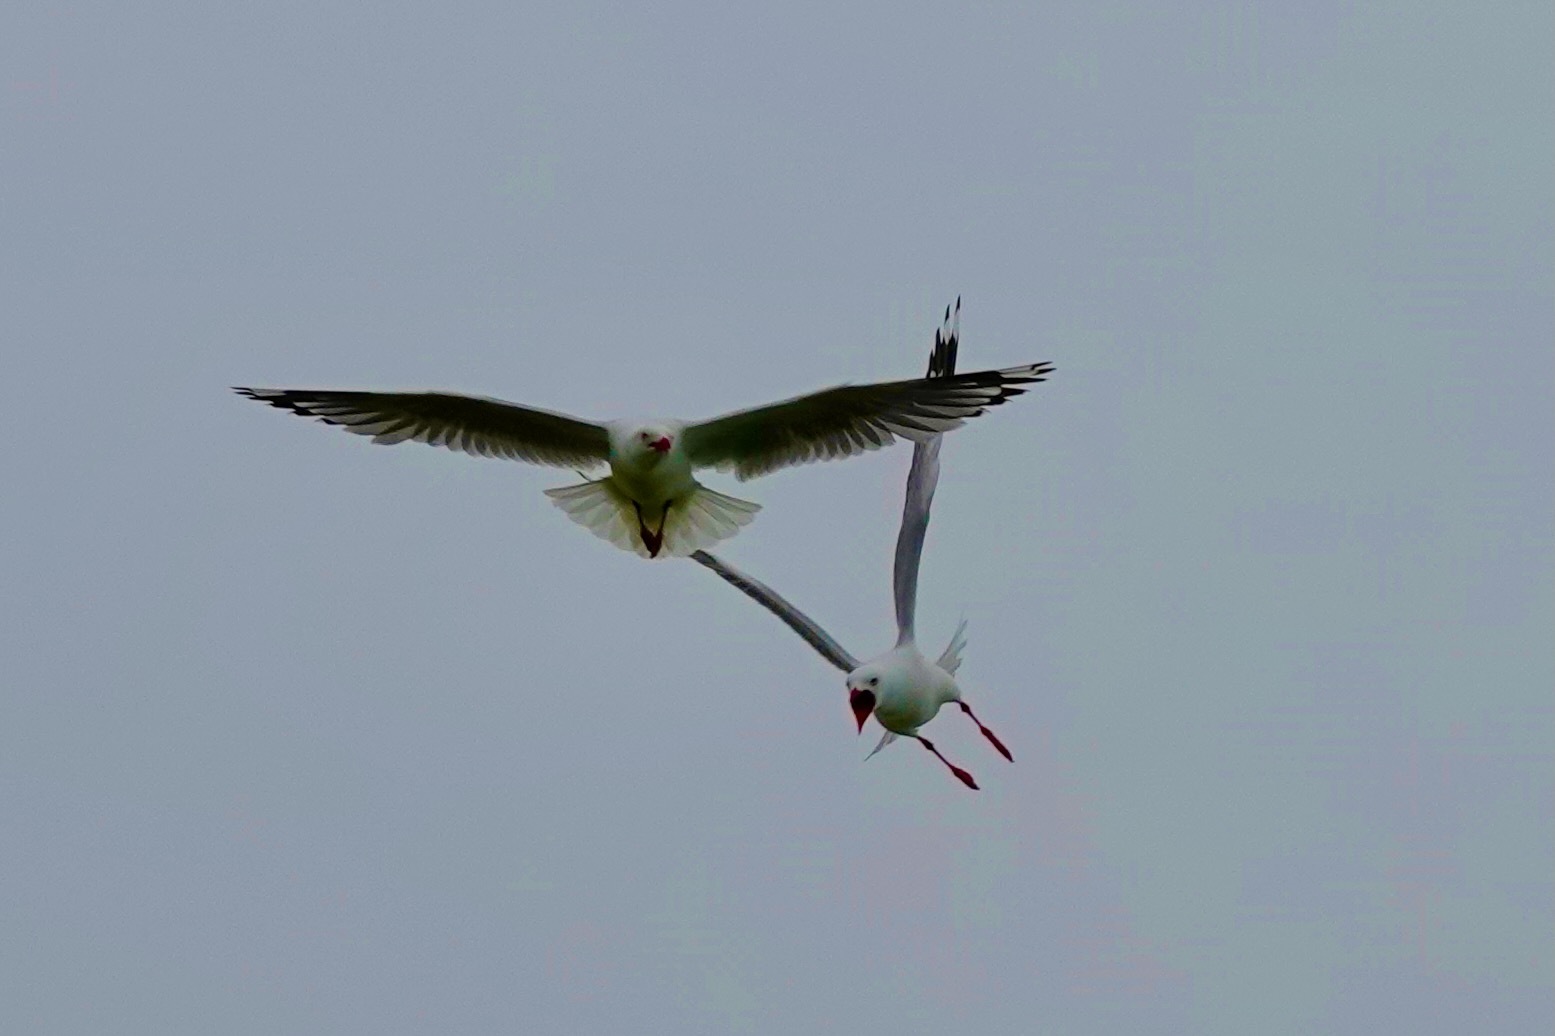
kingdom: Animalia
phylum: Chordata
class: Aves
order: Charadriiformes
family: Laridae
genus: Chroicocephalus
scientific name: Chroicocephalus novaehollandiae
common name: Silver gull
